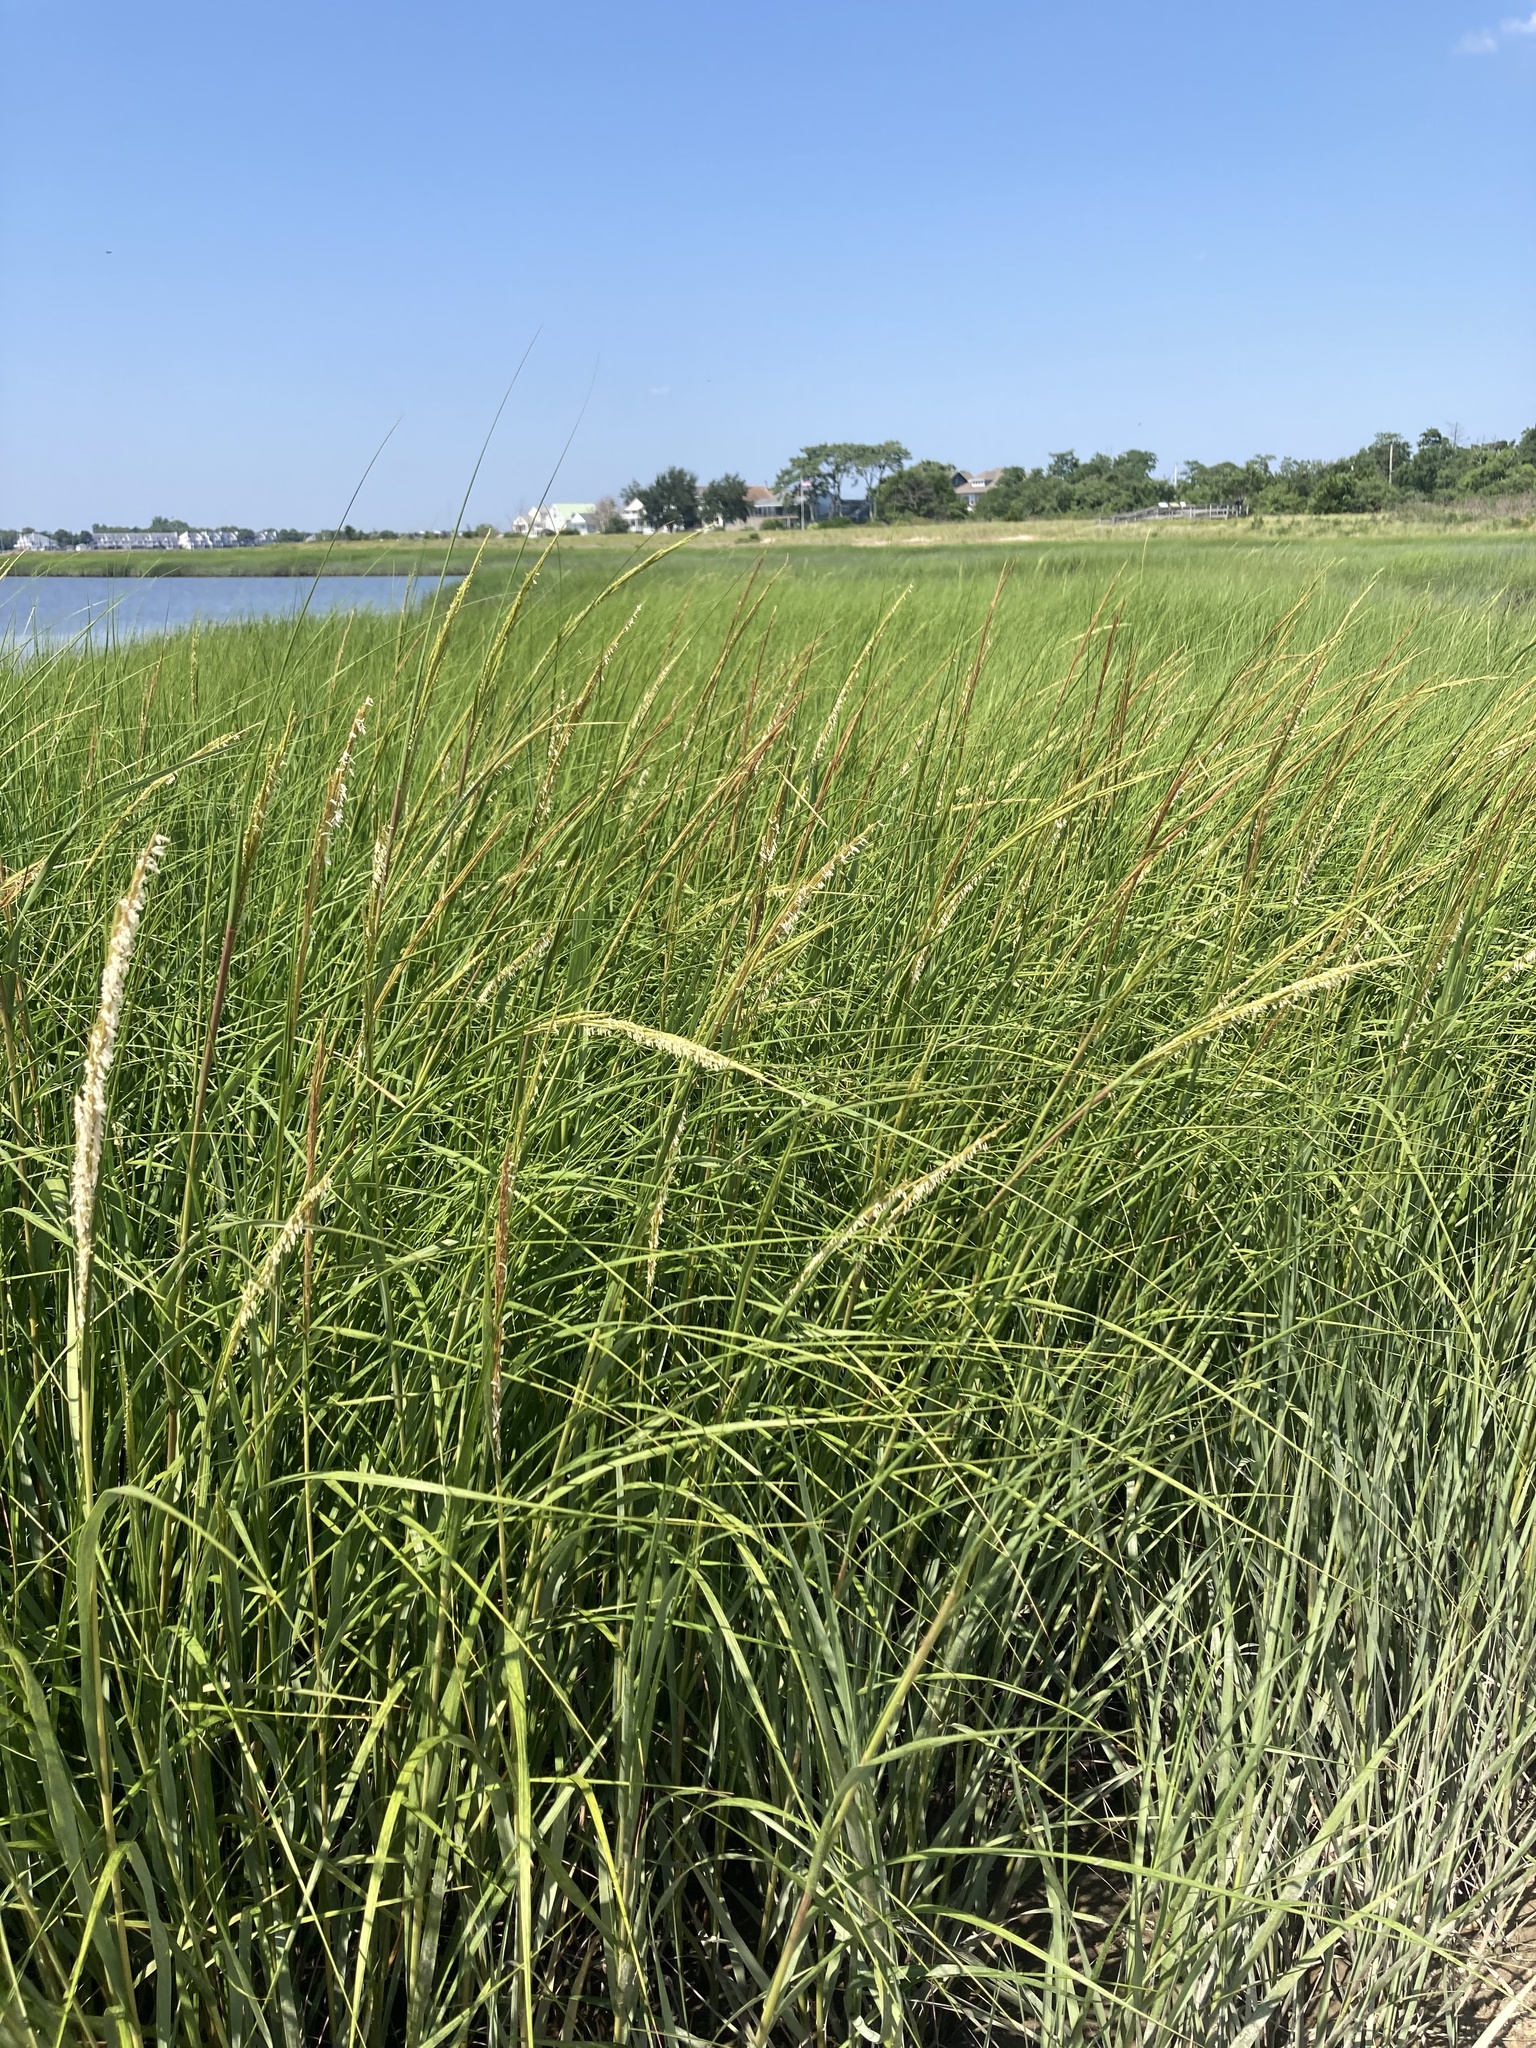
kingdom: Plantae
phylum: Tracheophyta
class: Liliopsida
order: Poales
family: Poaceae
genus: Sporobolus
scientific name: Sporobolus alterniflorus
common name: Atlantic cordgrass
